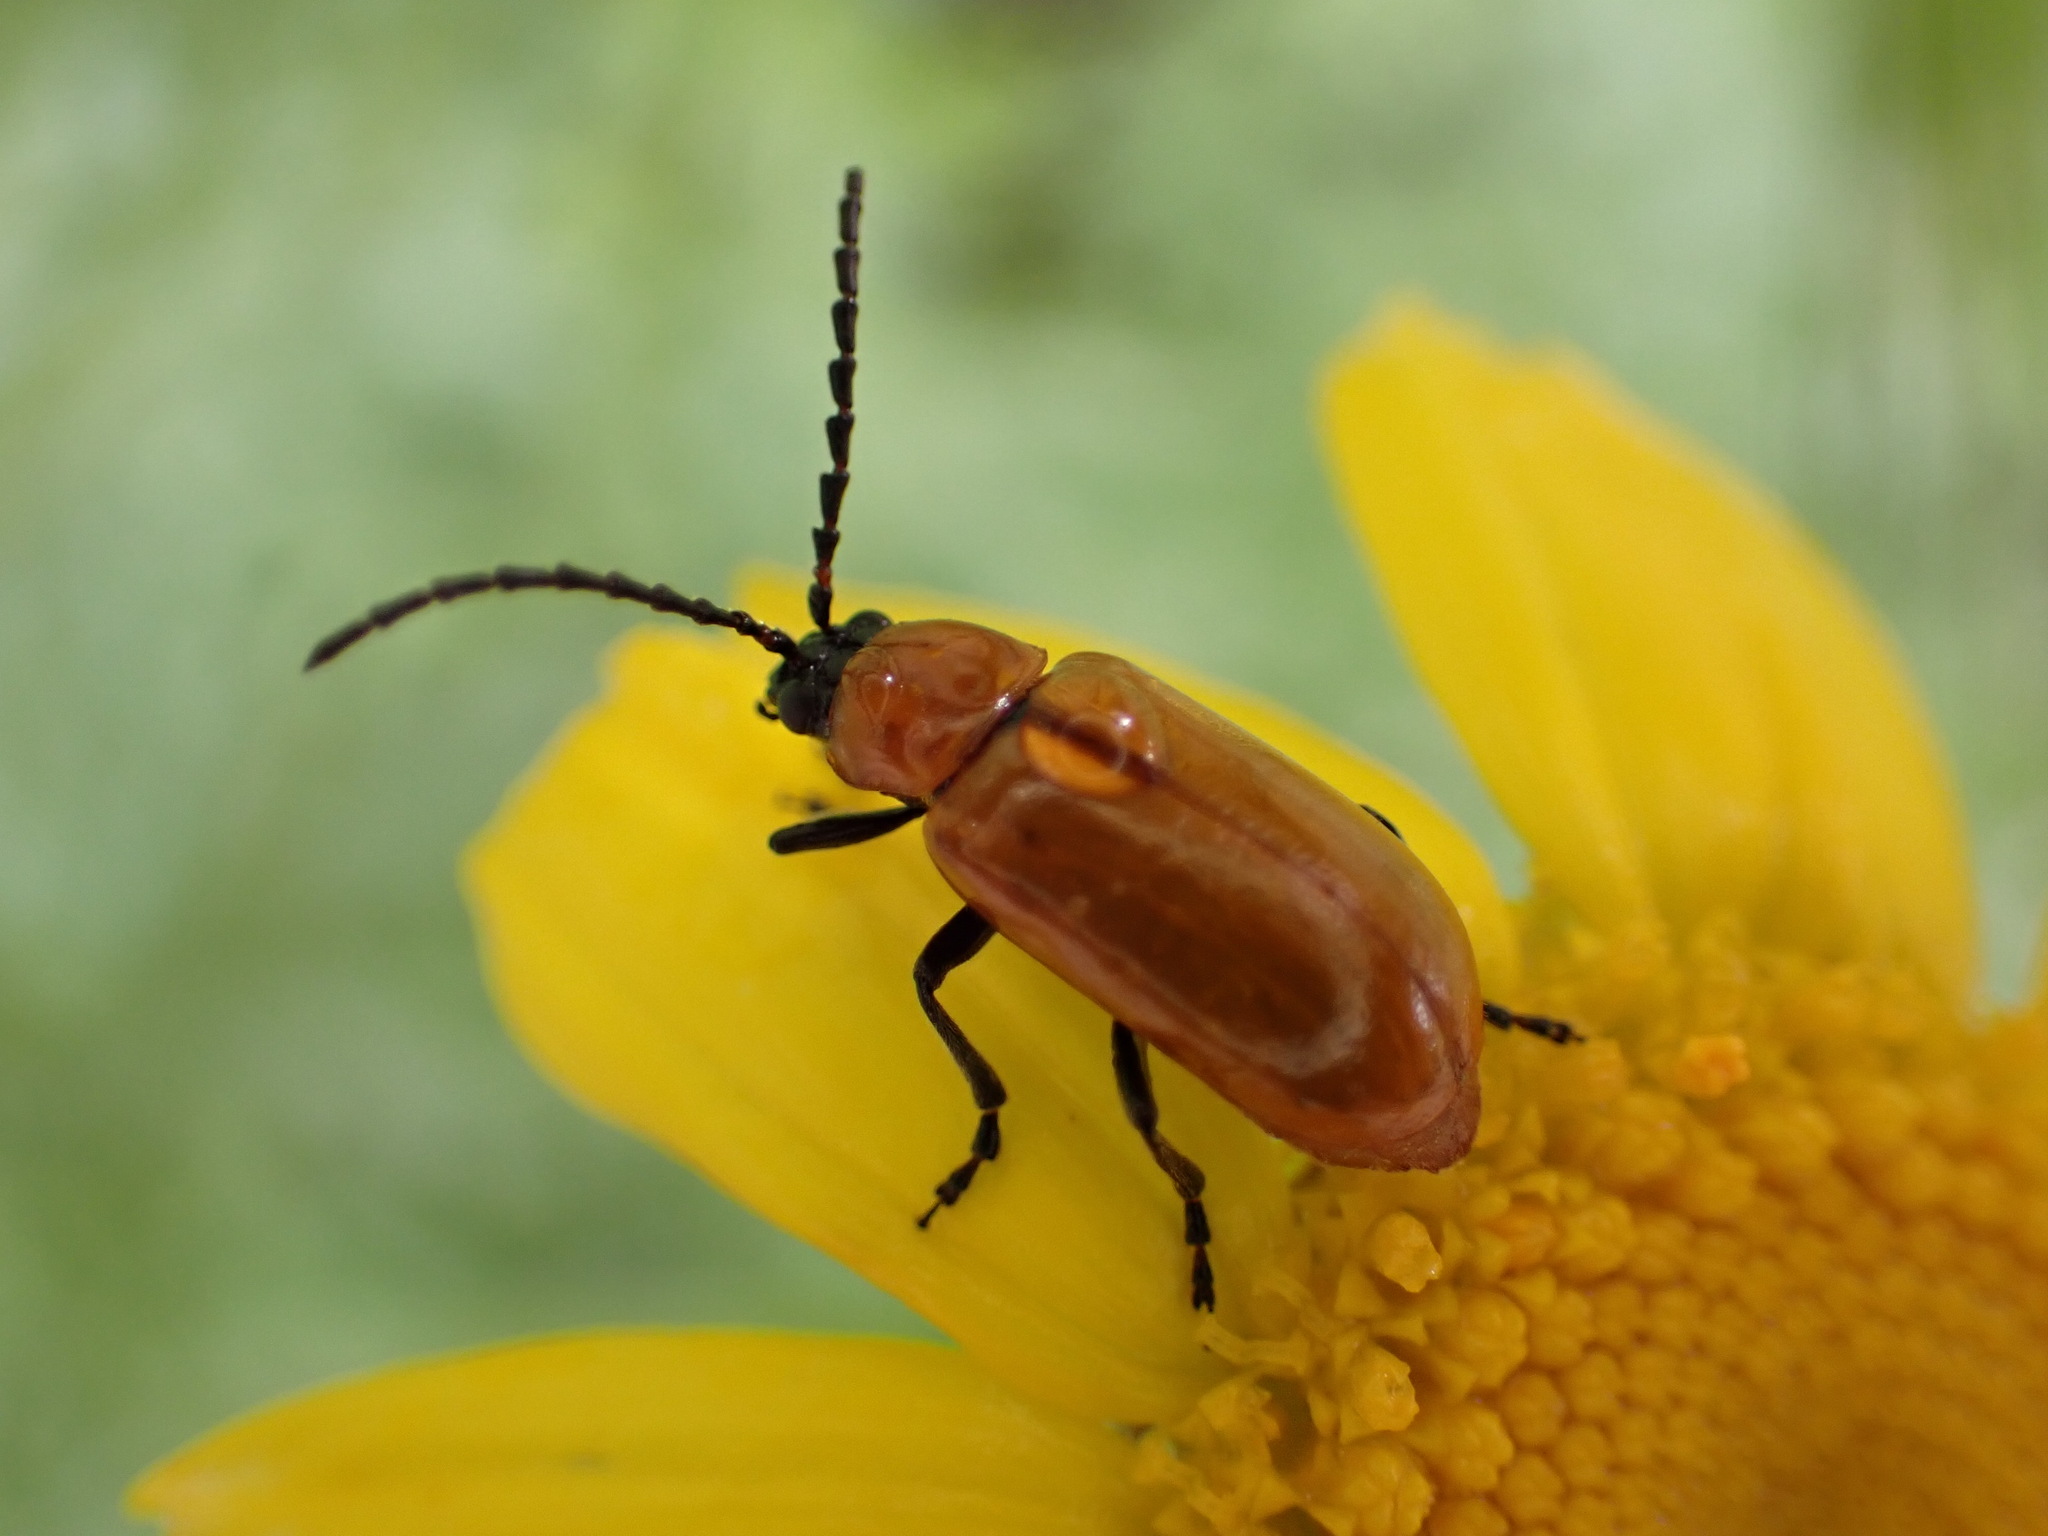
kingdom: Animalia
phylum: Arthropoda
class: Insecta
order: Coleoptera
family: Chrysomelidae
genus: Exosoma
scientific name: Exosoma lusitanicum
